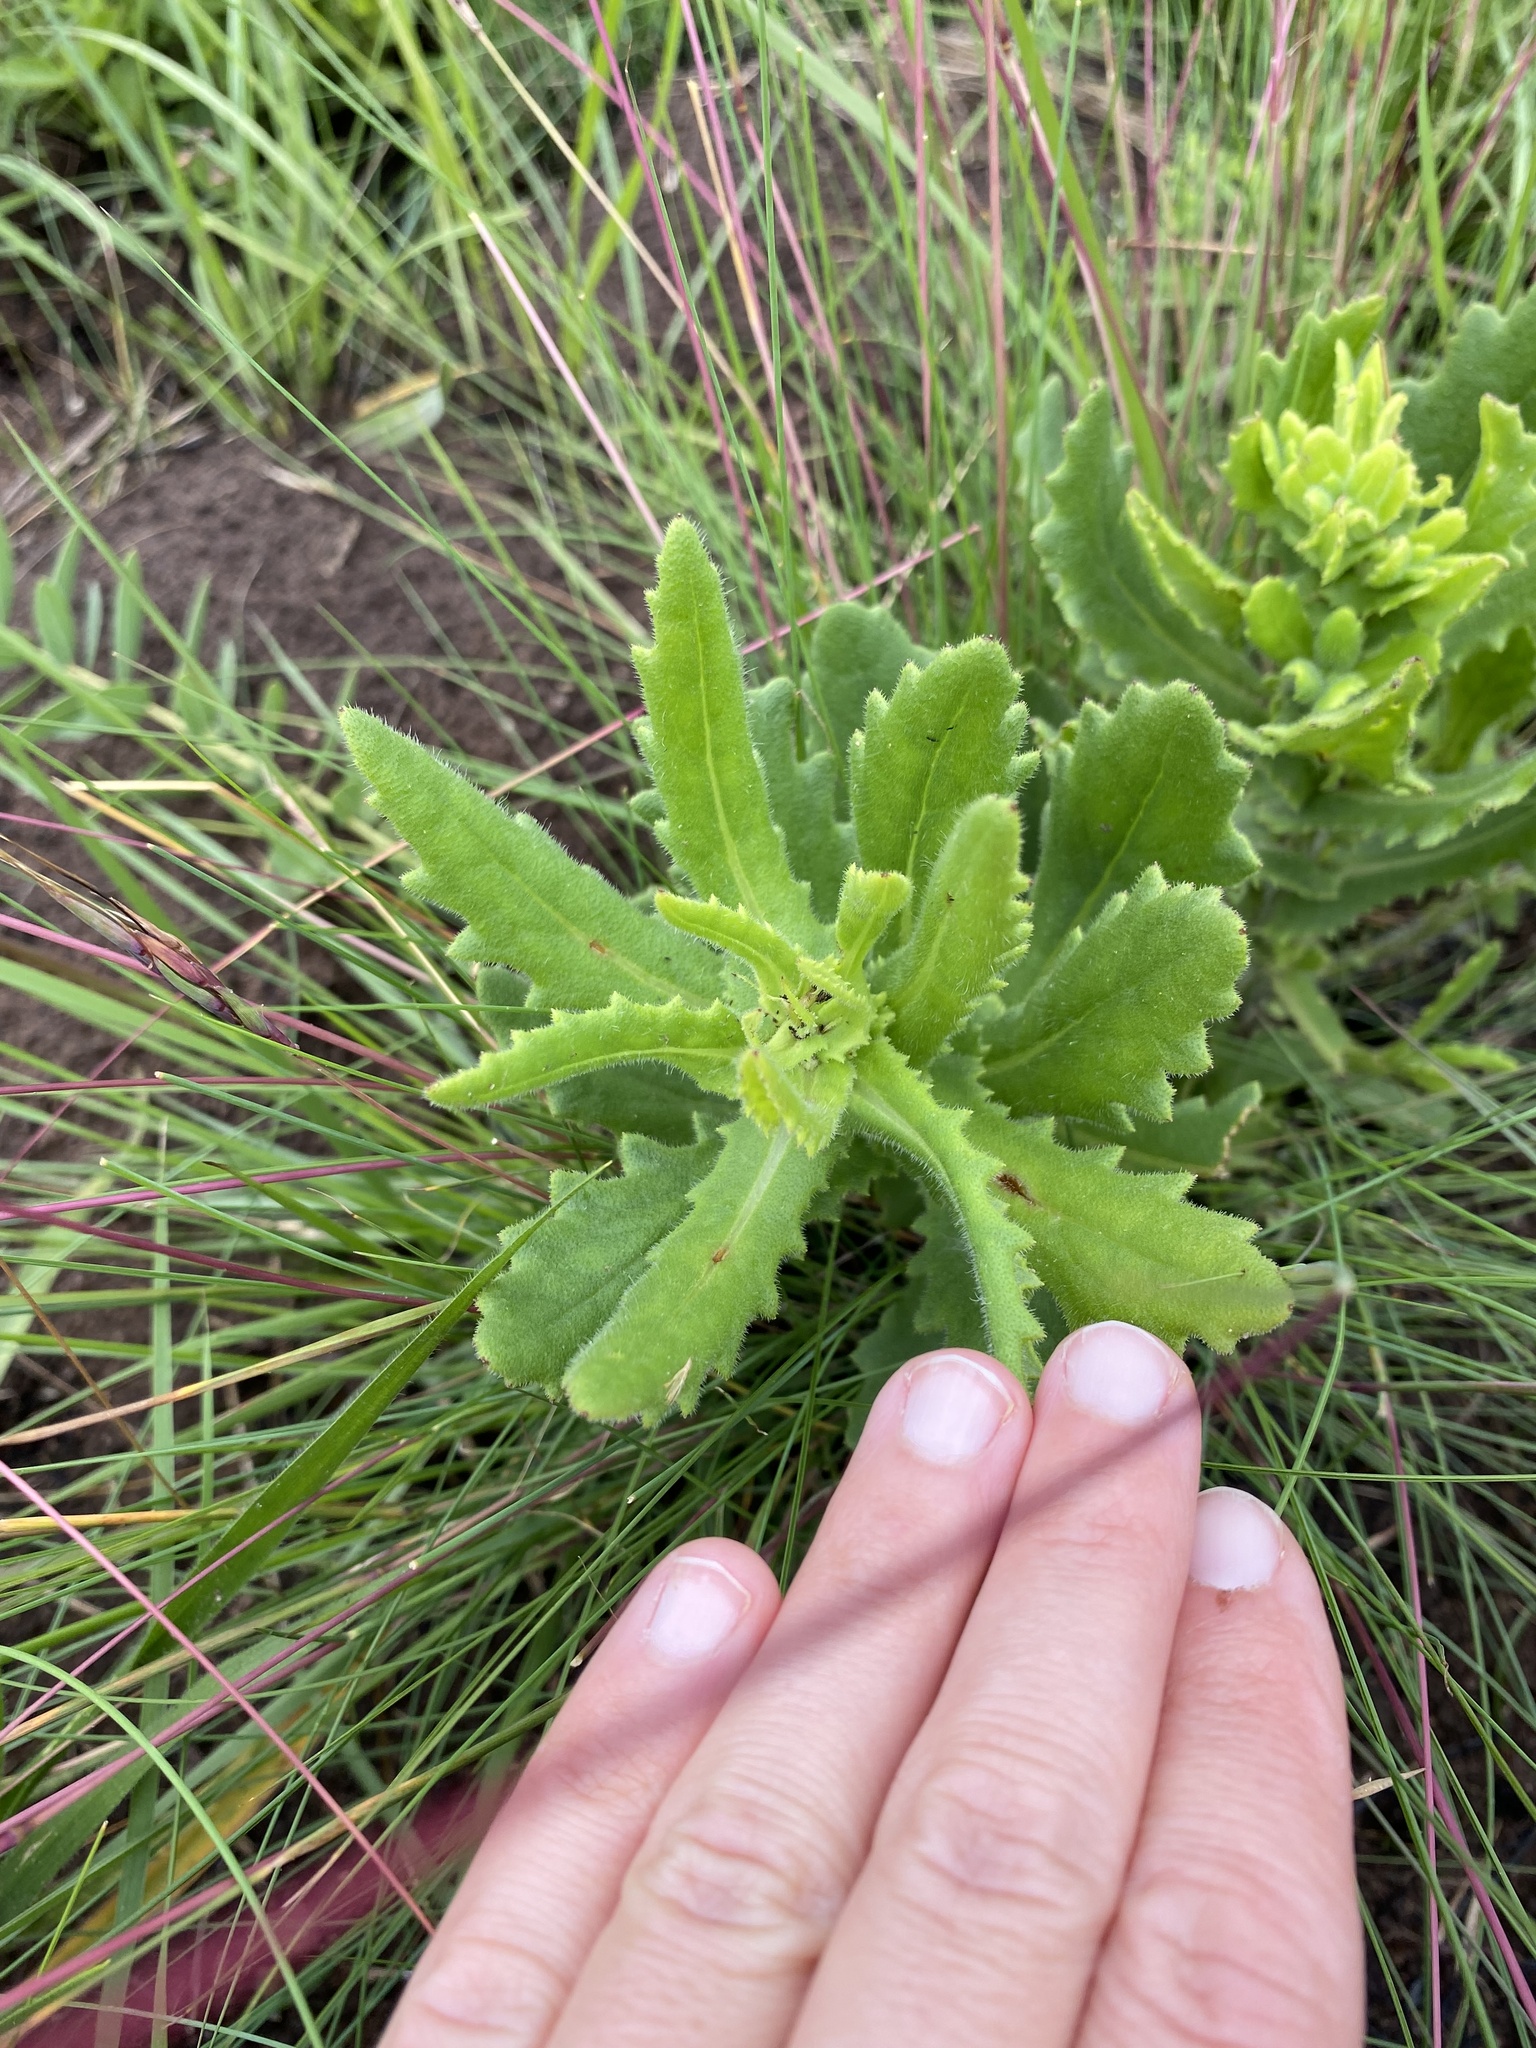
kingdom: Plantae
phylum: Tracheophyta
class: Magnoliopsida
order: Asterales
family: Asteraceae
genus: Senecio
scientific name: Senecio erubescens
